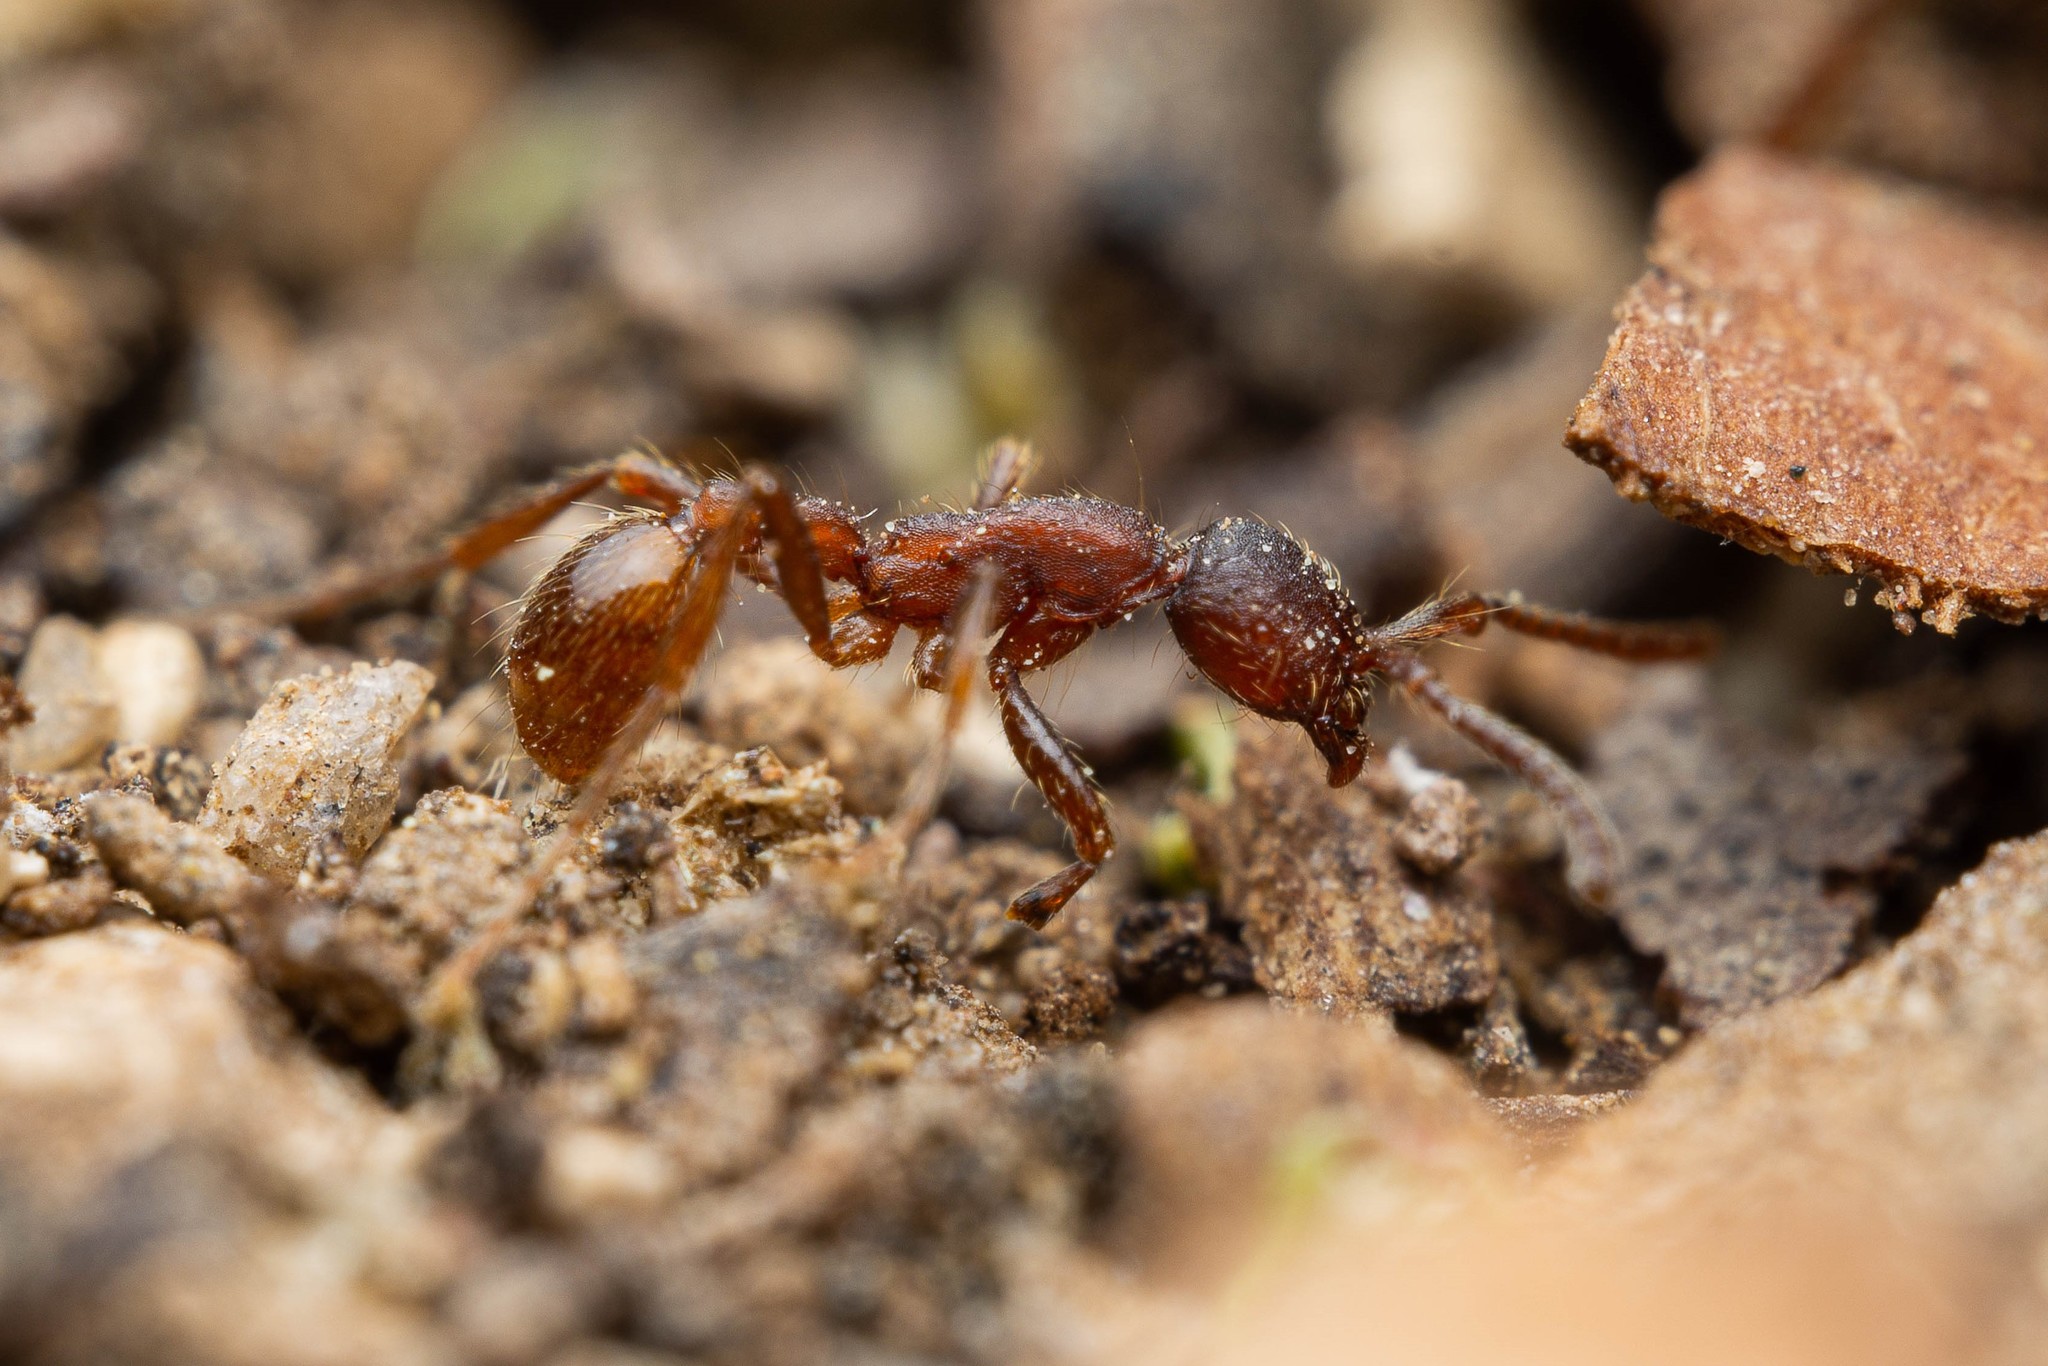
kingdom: Animalia
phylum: Arthropoda
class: Insecta
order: Hymenoptera
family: Formicidae
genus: Neivamyrmex
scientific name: Neivamyrmex nigrescens
